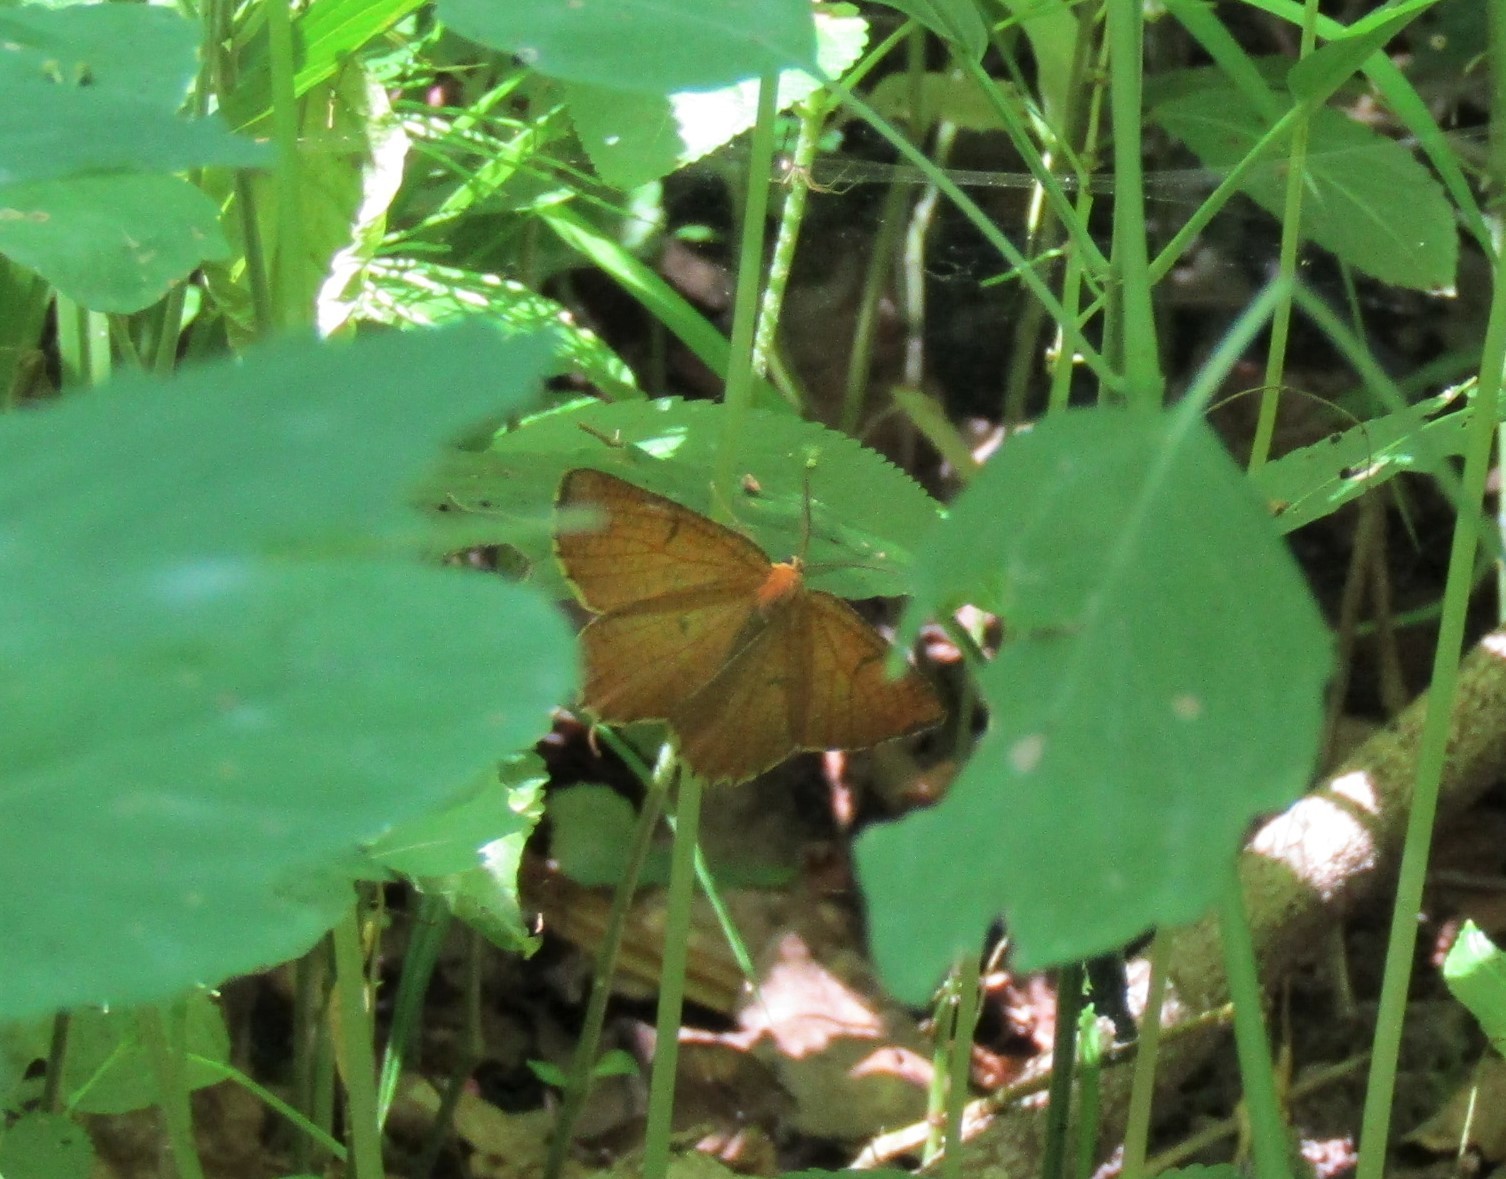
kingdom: Animalia
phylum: Arthropoda
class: Insecta
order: Lepidoptera
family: Geometridae
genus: Angerona
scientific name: Angerona prunaria
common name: Orange moth
